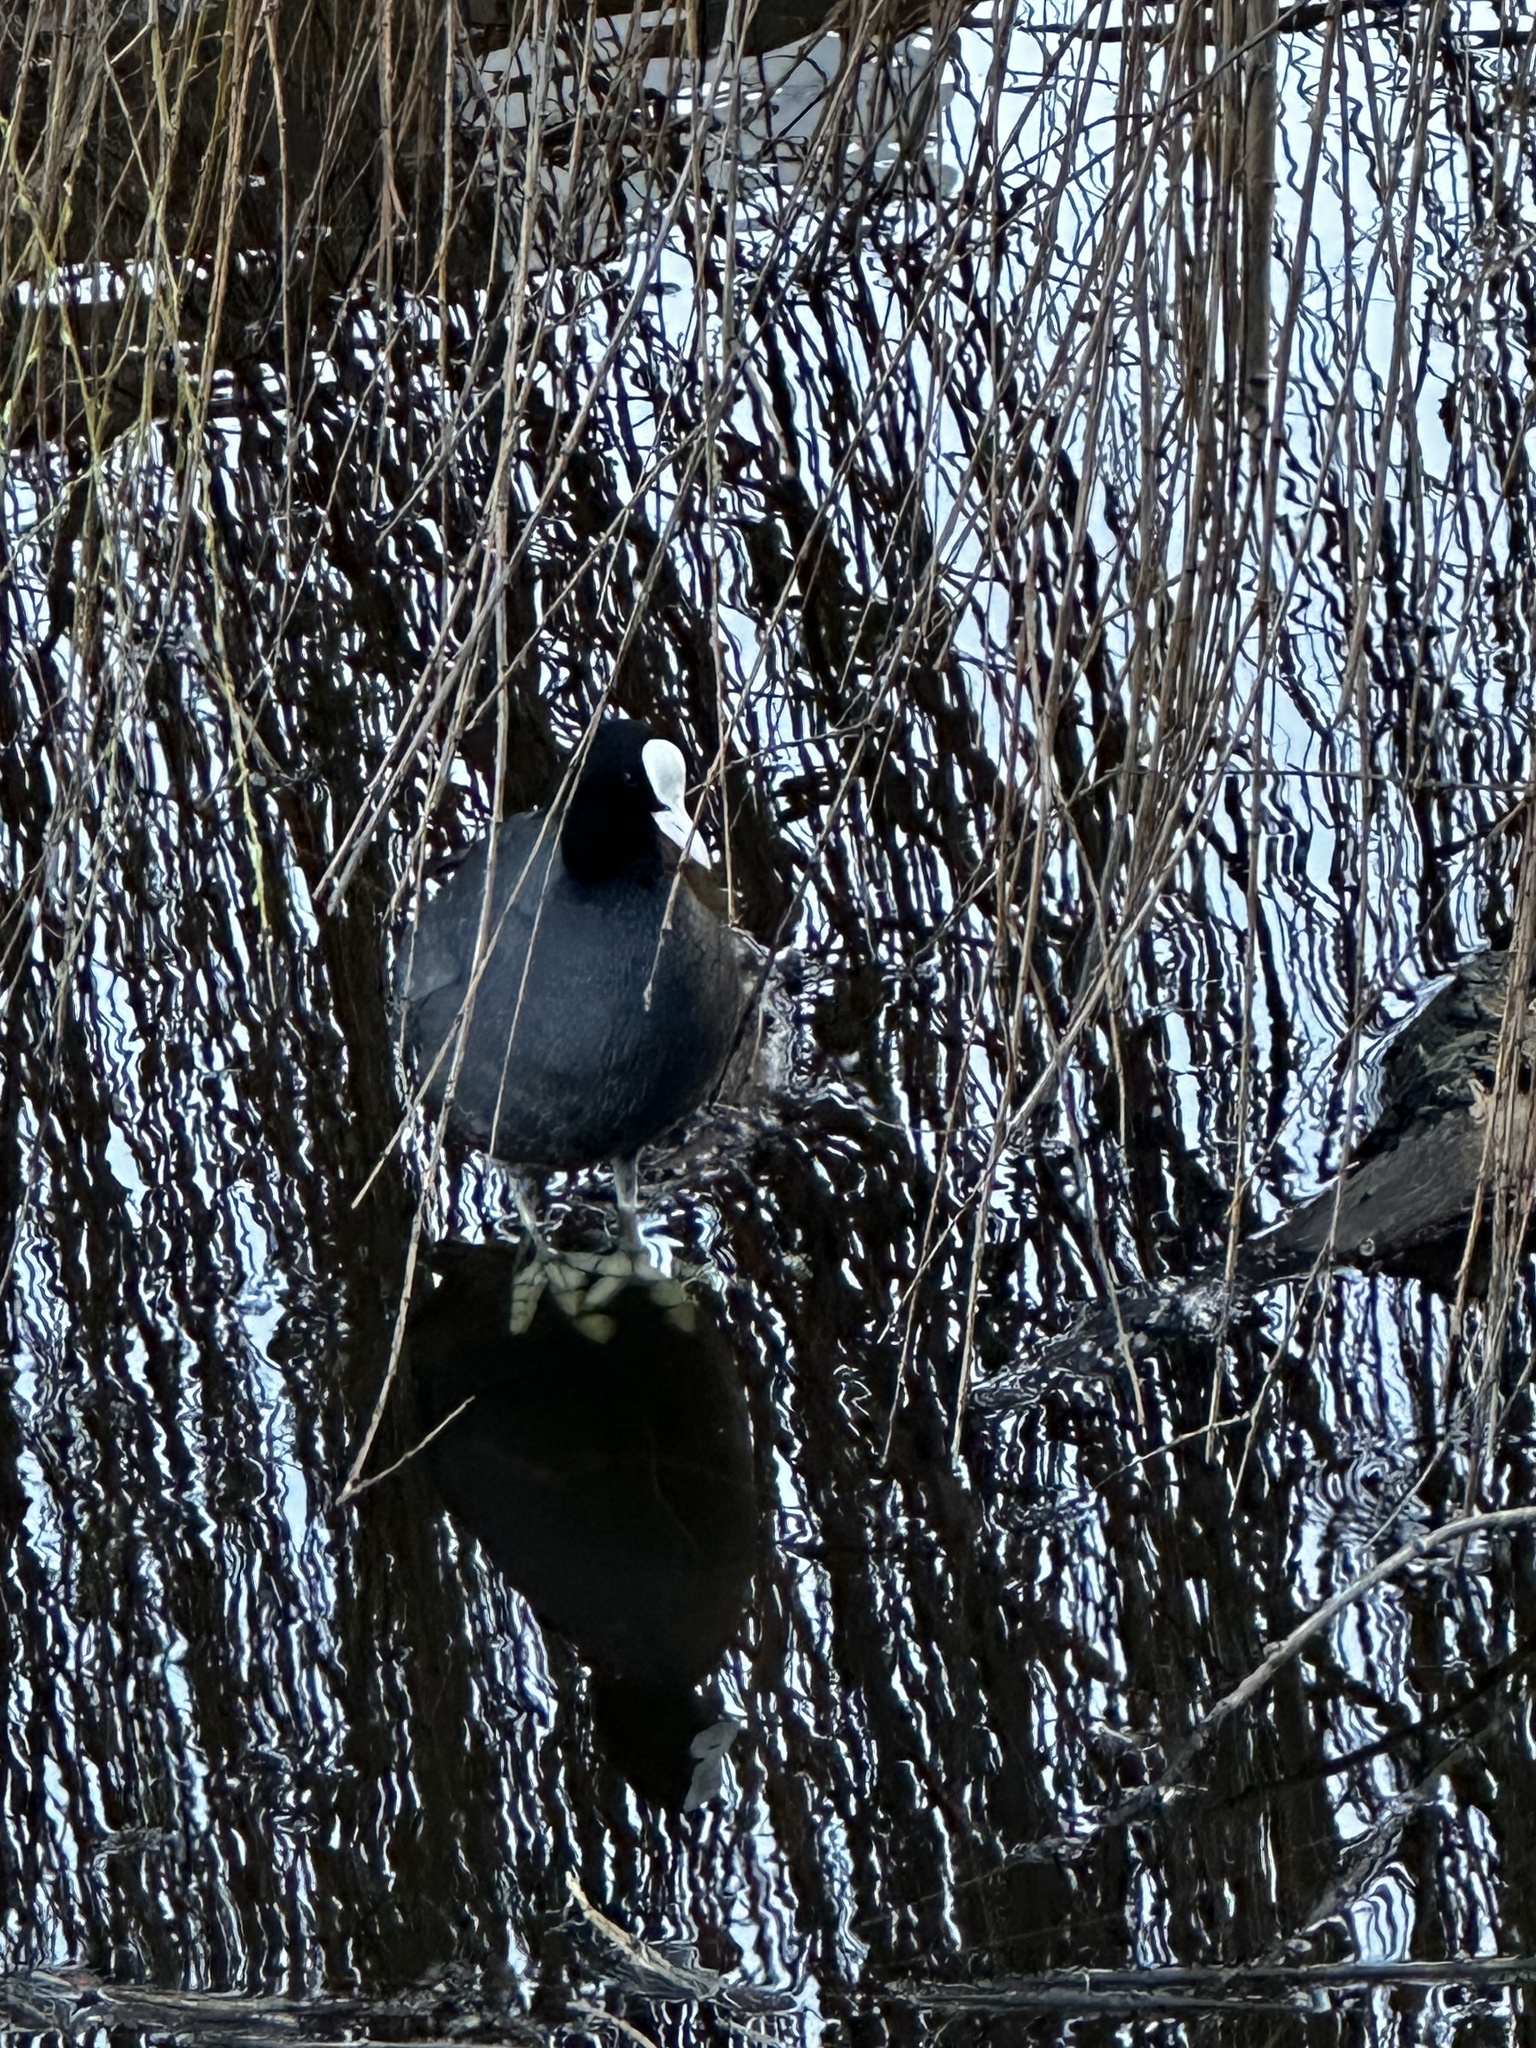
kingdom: Animalia
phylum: Chordata
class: Aves
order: Gruiformes
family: Rallidae
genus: Fulica
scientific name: Fulica atra
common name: Eurasian coot
